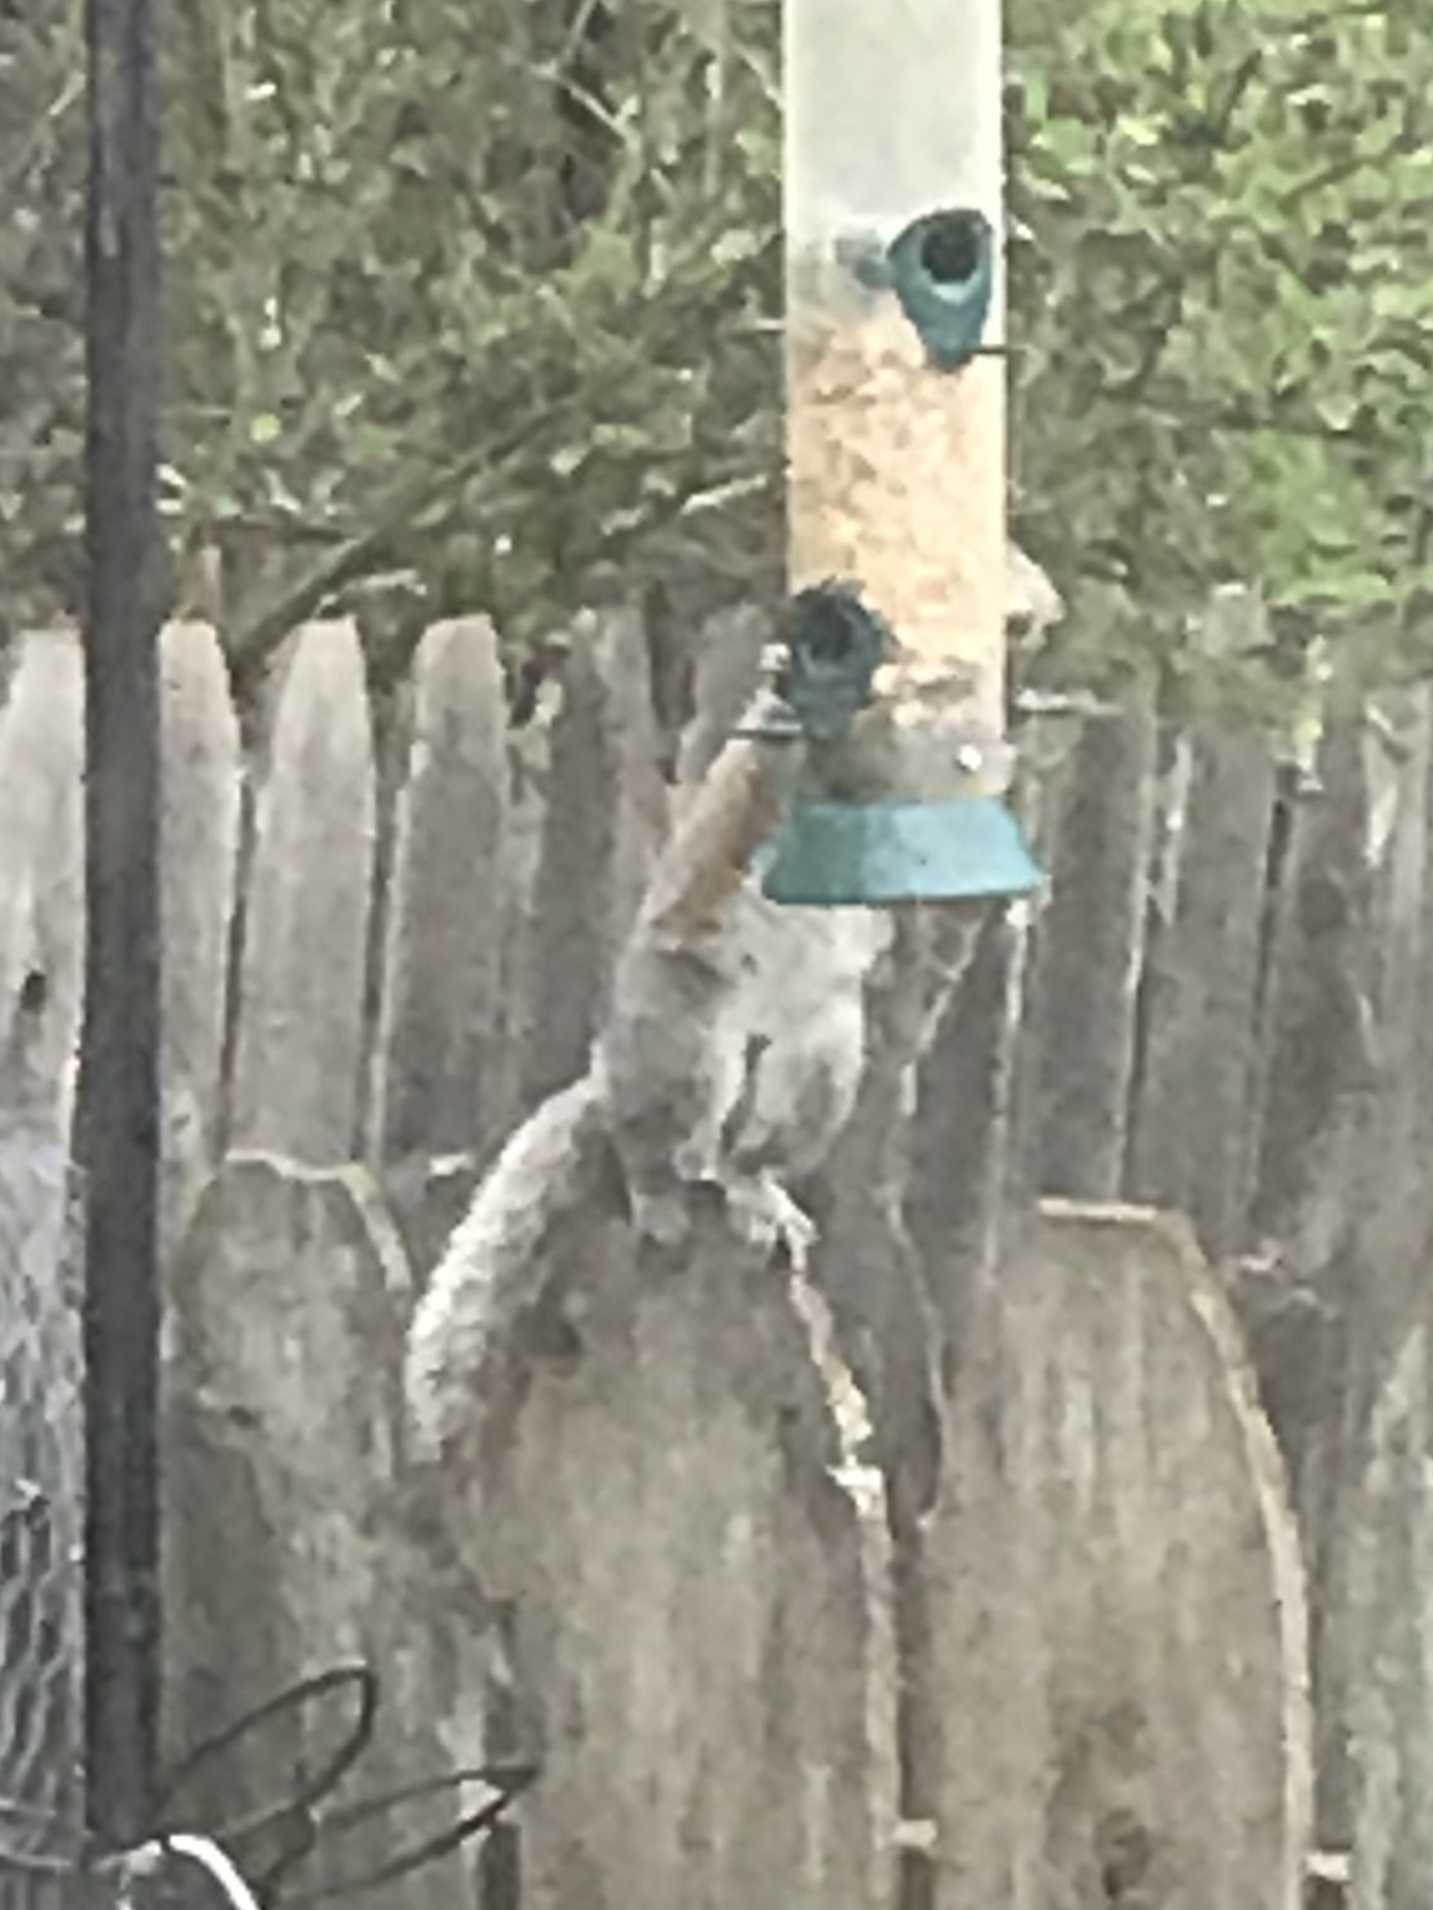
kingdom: Animalia
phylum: Chordata
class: Mammalia
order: Rodentia
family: Sciuridae
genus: Sciurus
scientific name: Sciurus carolinensis
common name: Eastern gray squirrel
